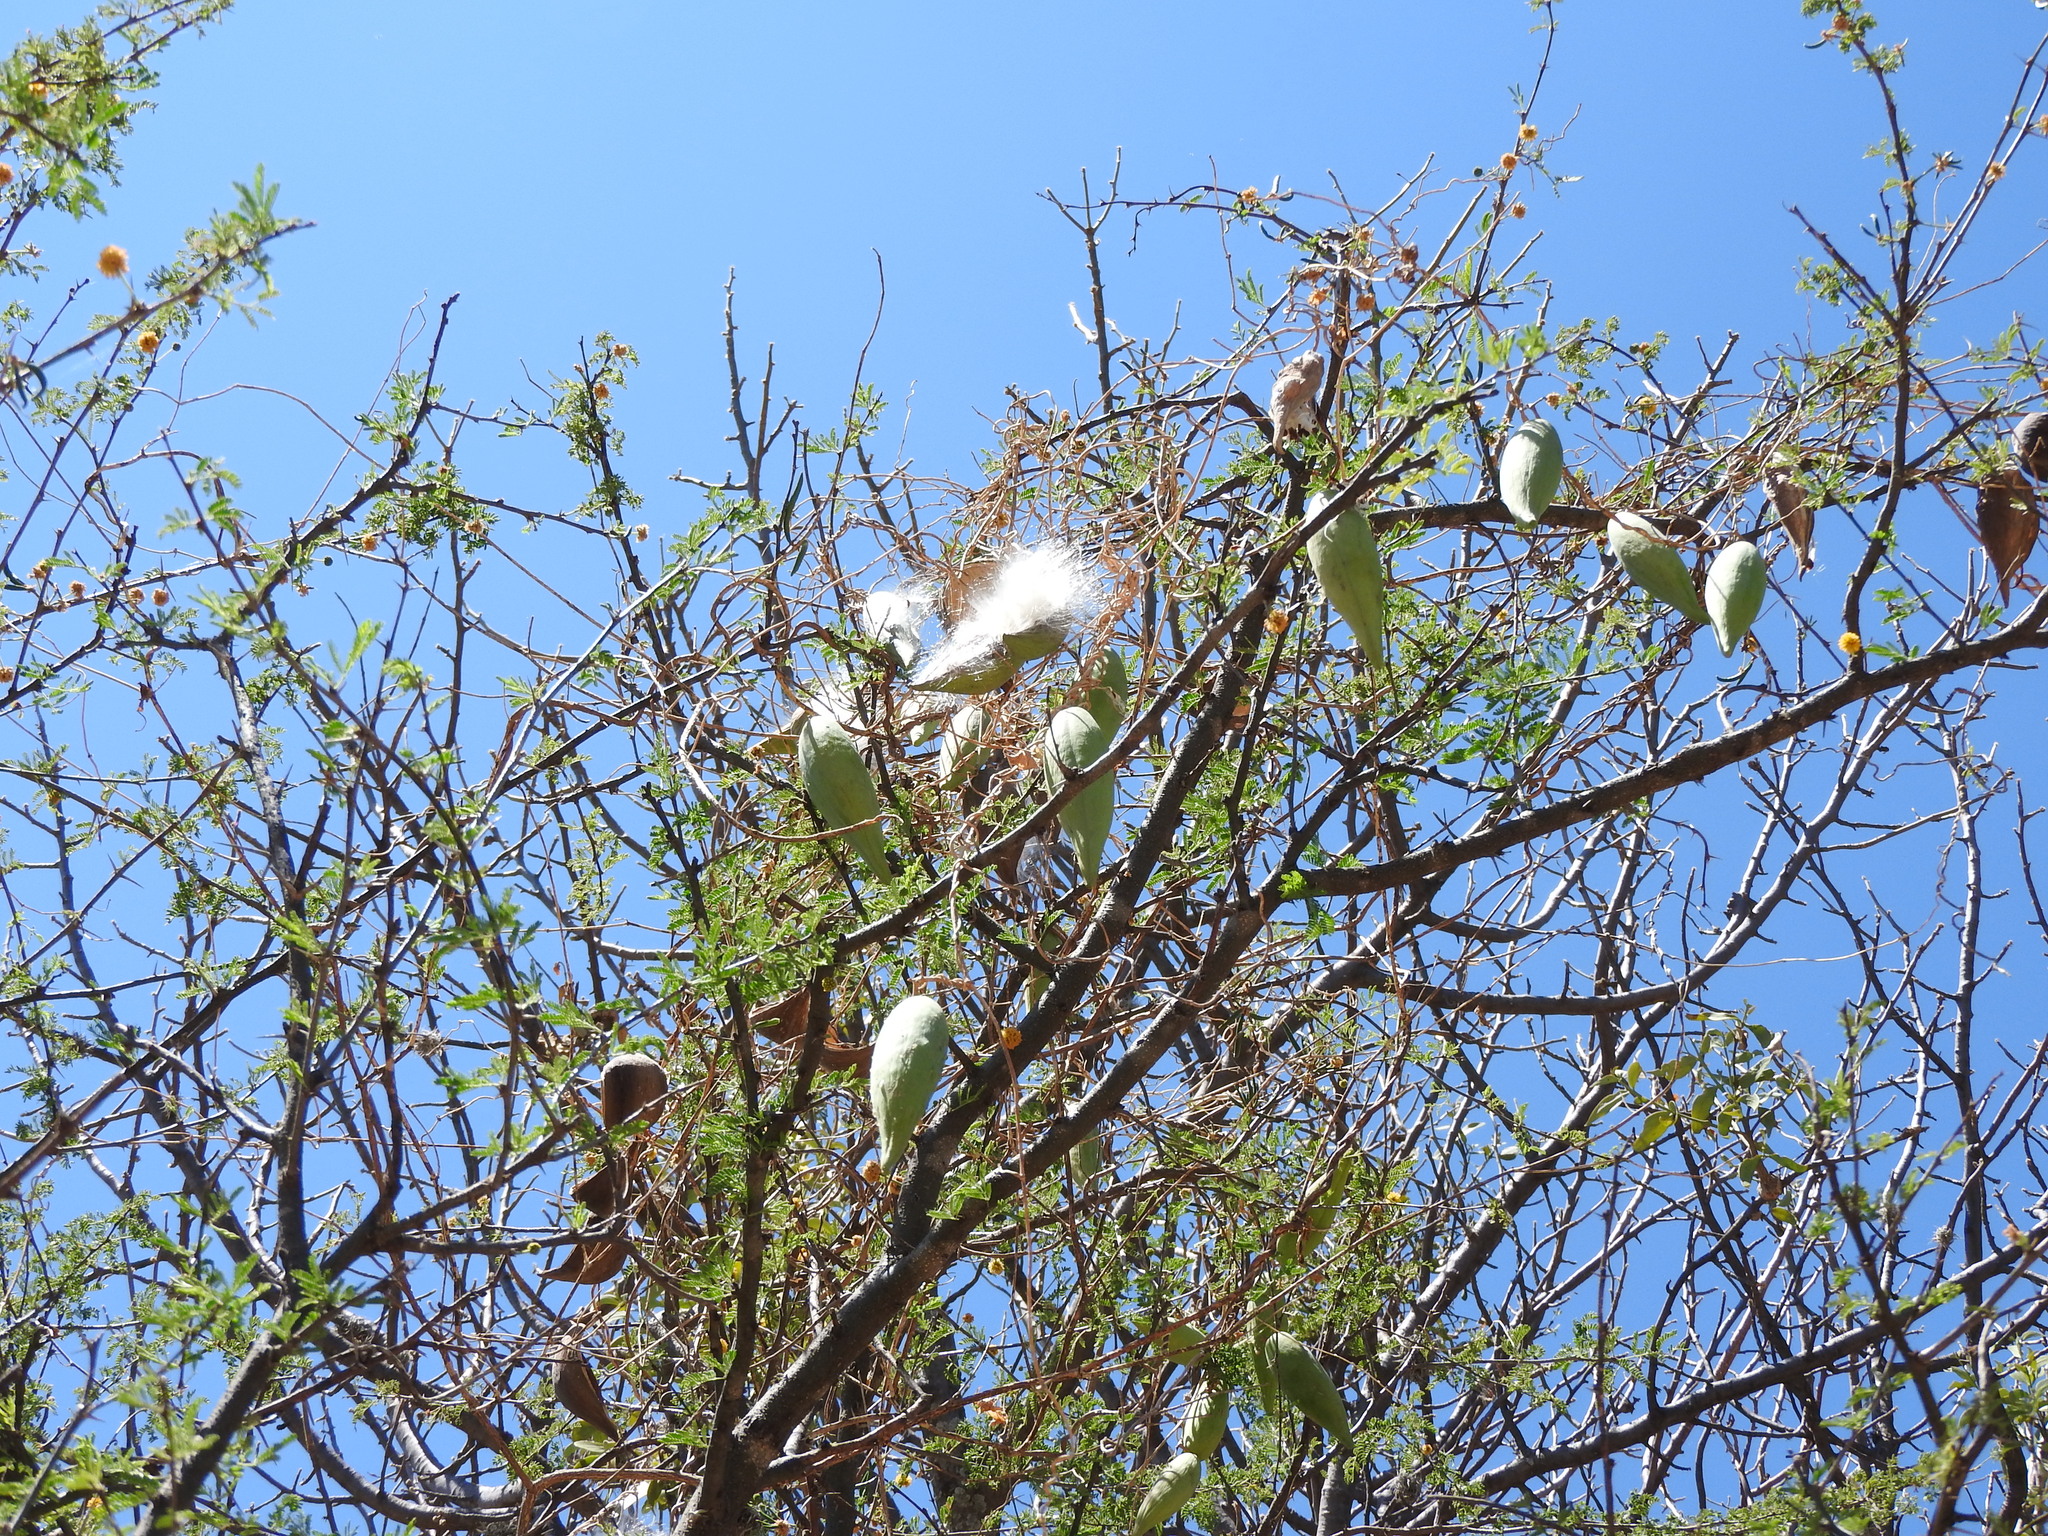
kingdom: Plantae
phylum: Tracheophyta
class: Magnoliopsida
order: Gentianales
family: Apocynaceae
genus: Funastrum
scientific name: Funastrum pannosum
